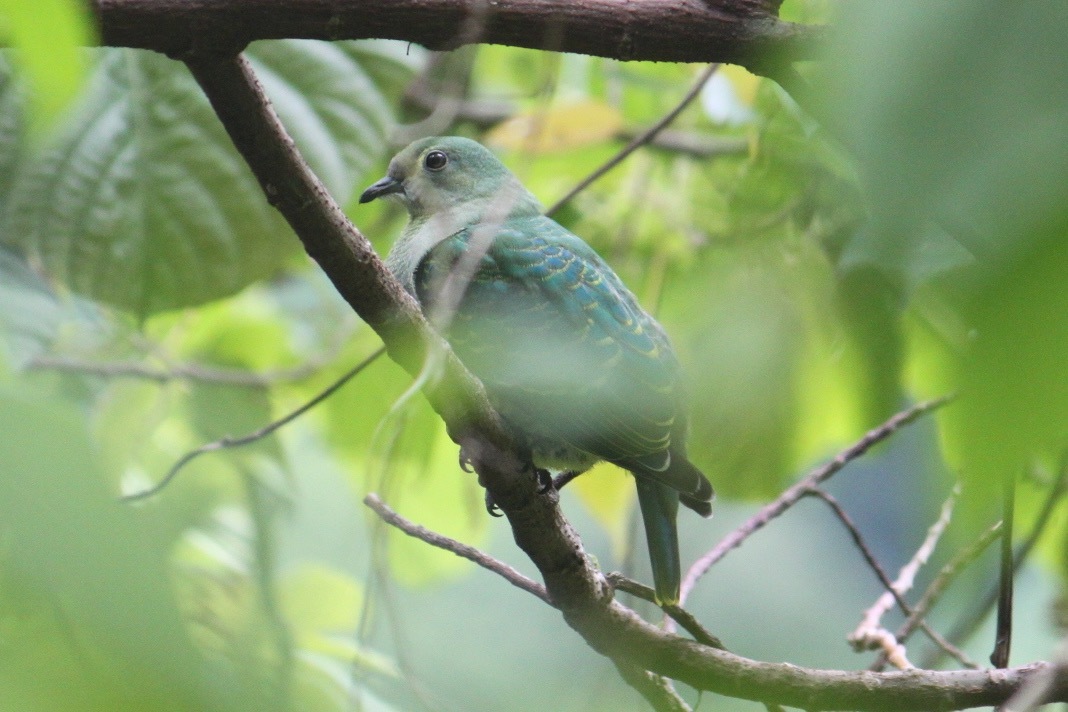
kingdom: Animalia
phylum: Chordata
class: Aves
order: Columbiformes
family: Columbidae
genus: Ptilinopus
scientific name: Ptilinopus porphyraceus
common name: Crimson-crowned fruit dove
